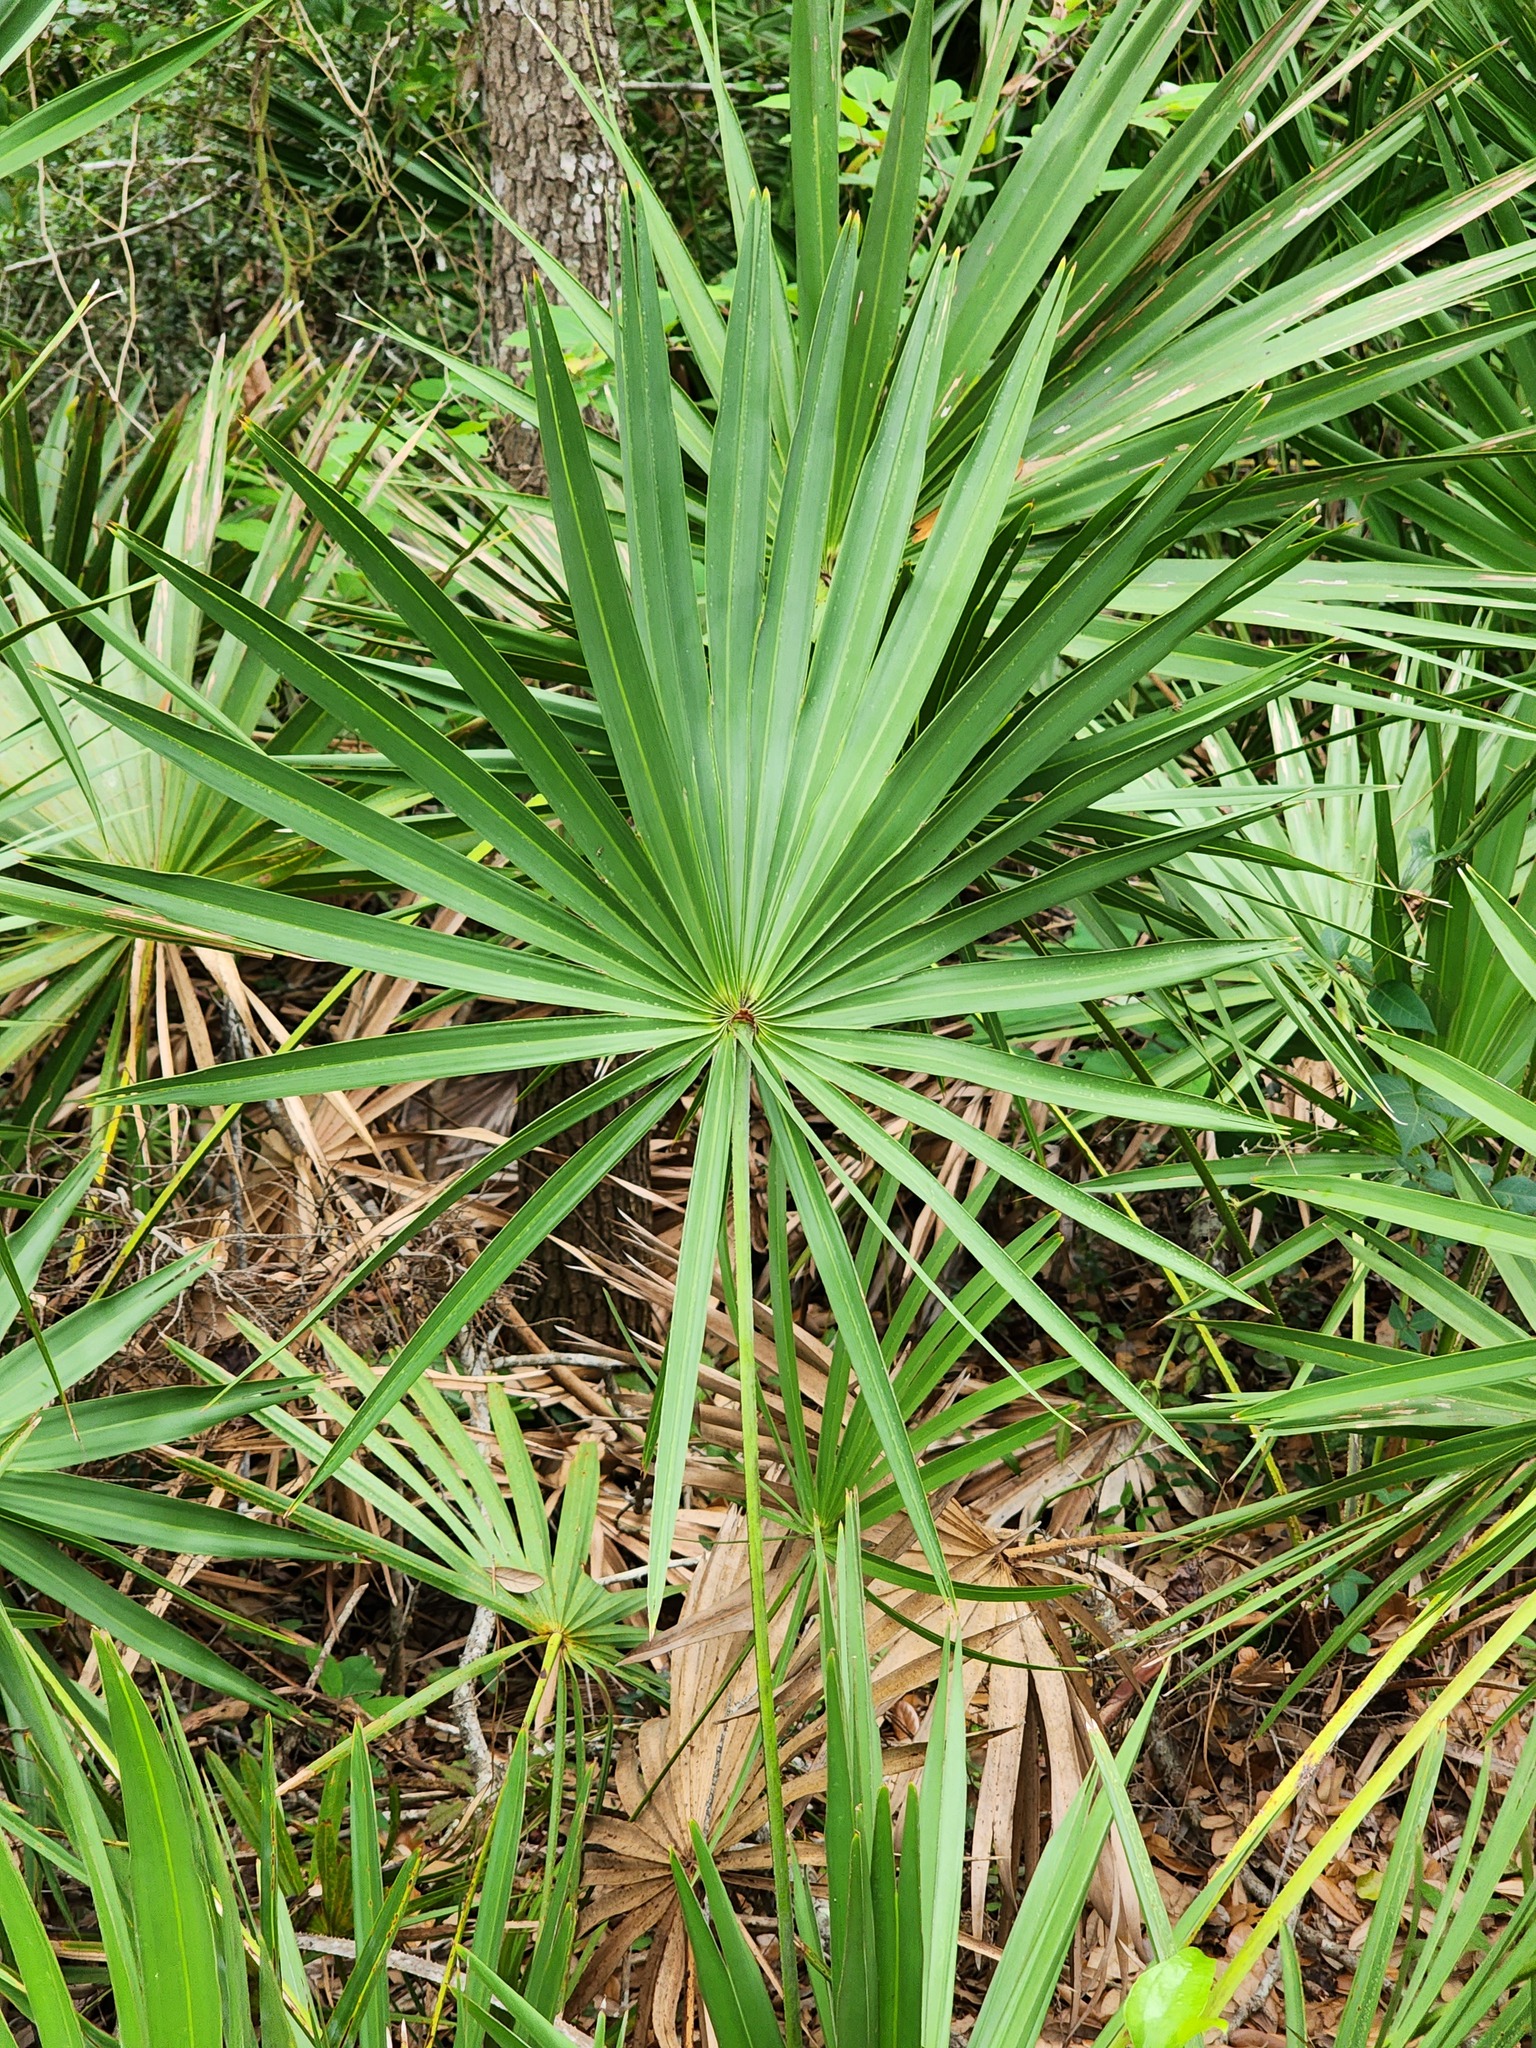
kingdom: Plantae
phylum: Tracheophyta
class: Liliopsida
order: Arecales
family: Arecaceae
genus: Serenoa
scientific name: Serenoa repens
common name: Saw-palmetto
